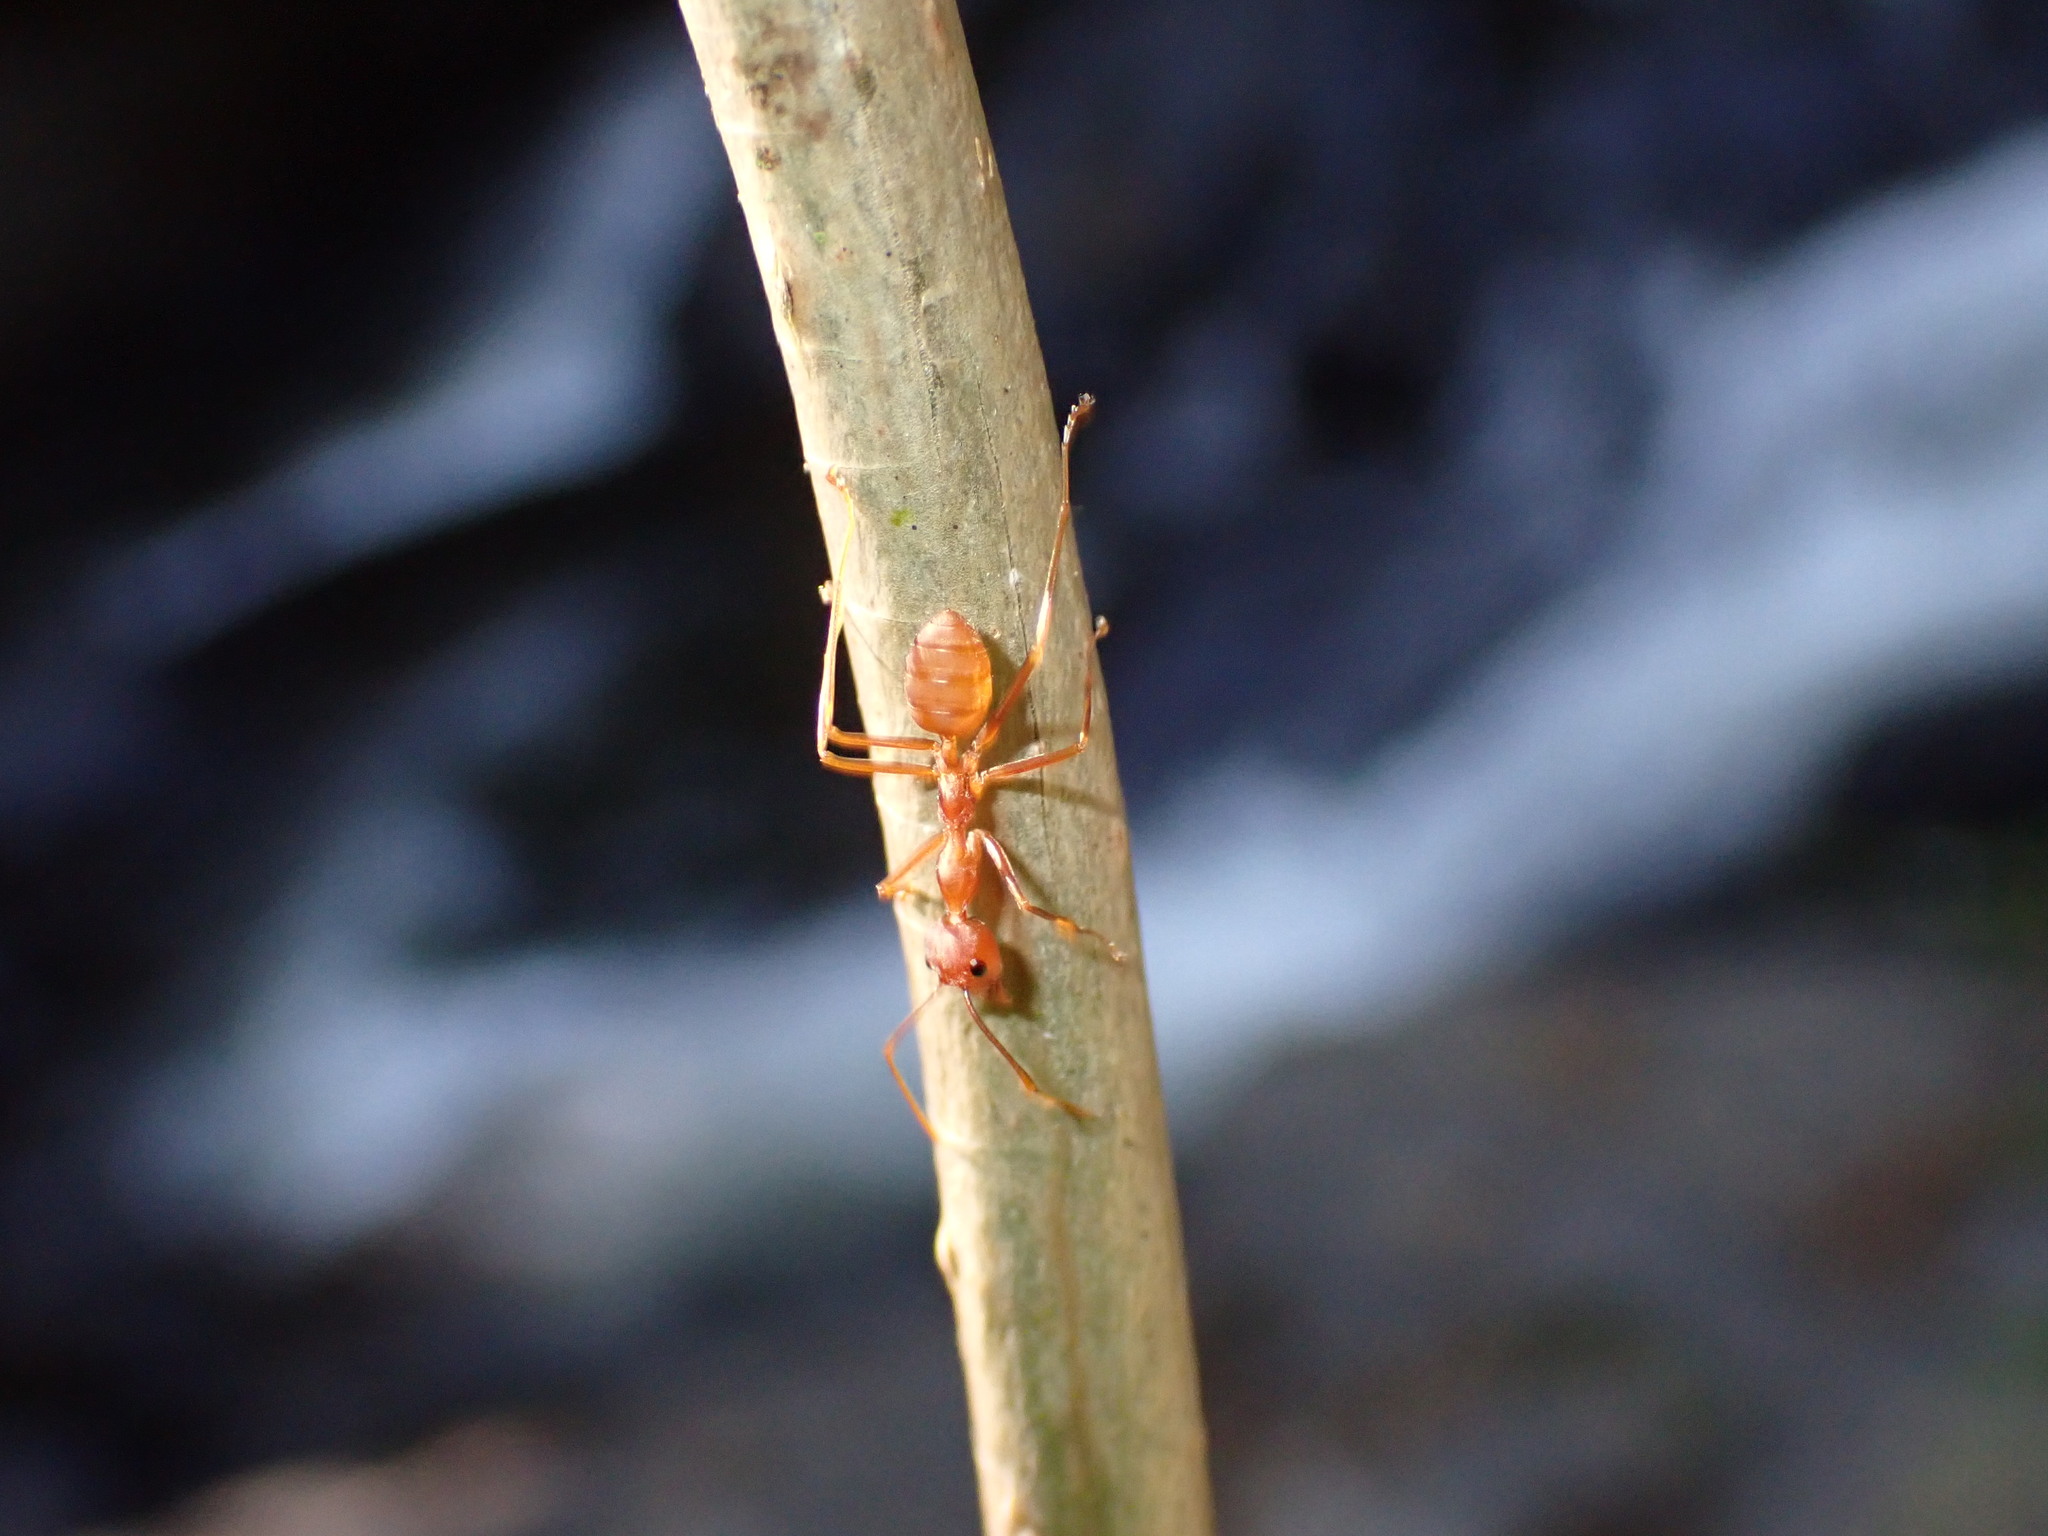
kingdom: Animalia
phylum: Arthropoda
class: Insecta
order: Hymenoptera
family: Formicidae
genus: Oecophylla
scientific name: Oecophylla smaragdina
